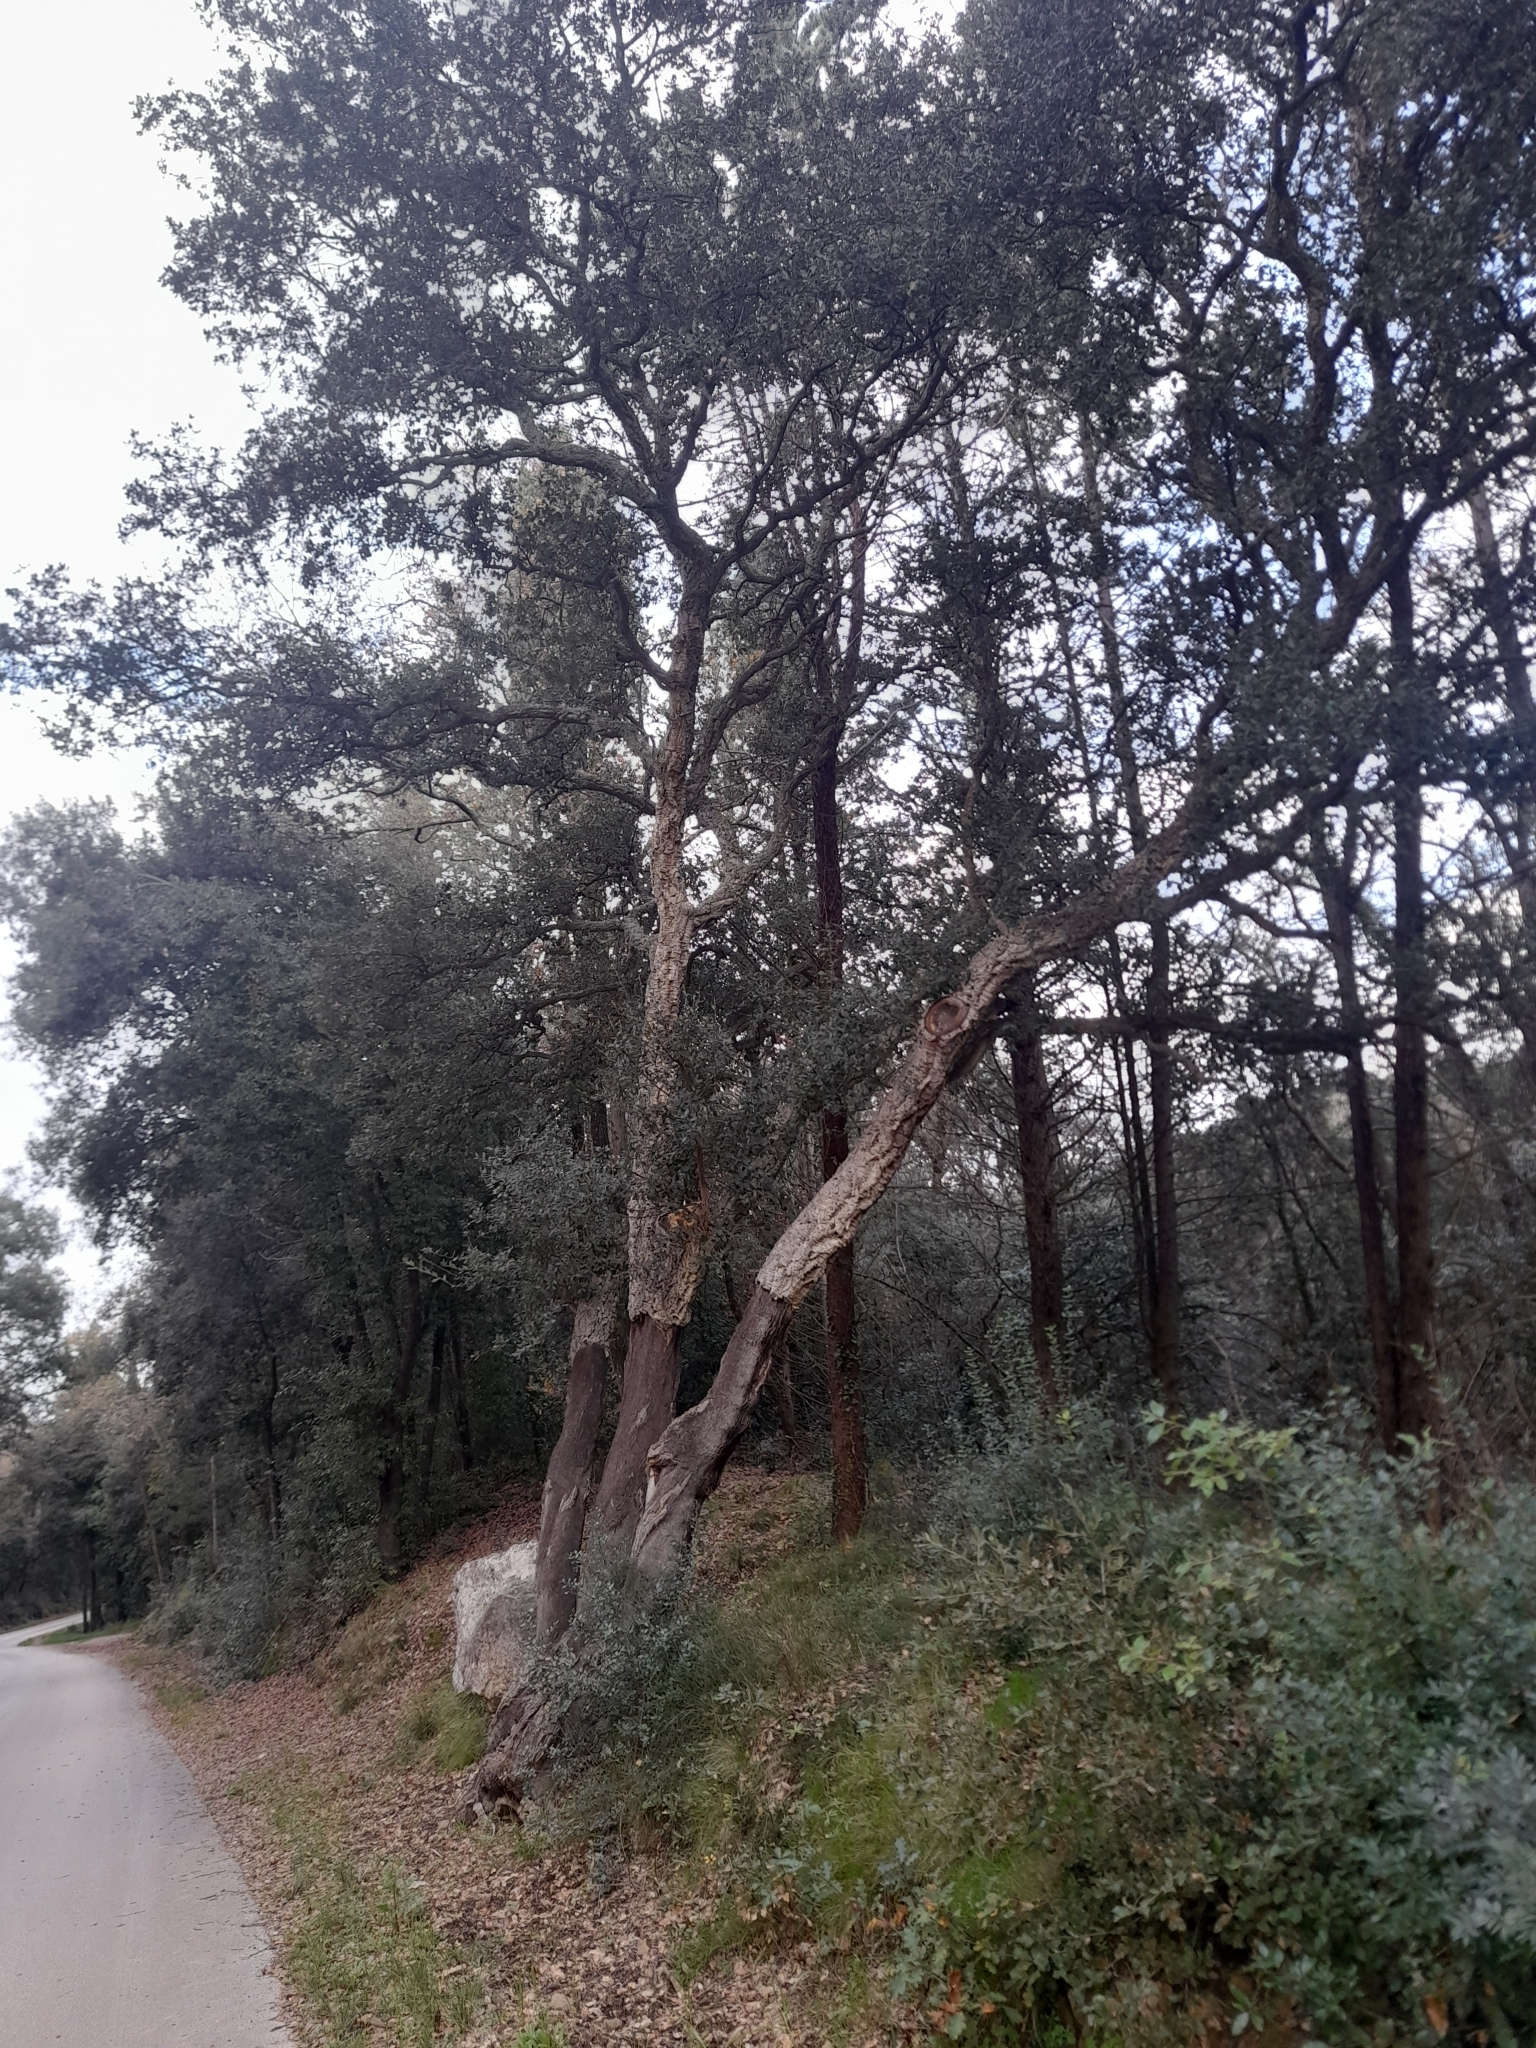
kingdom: Plantae
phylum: Tracheophyta
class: Magnoliopsida
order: Fagales
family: Fagaceae
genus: Quercus
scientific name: Quercus suber
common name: Cork oak
